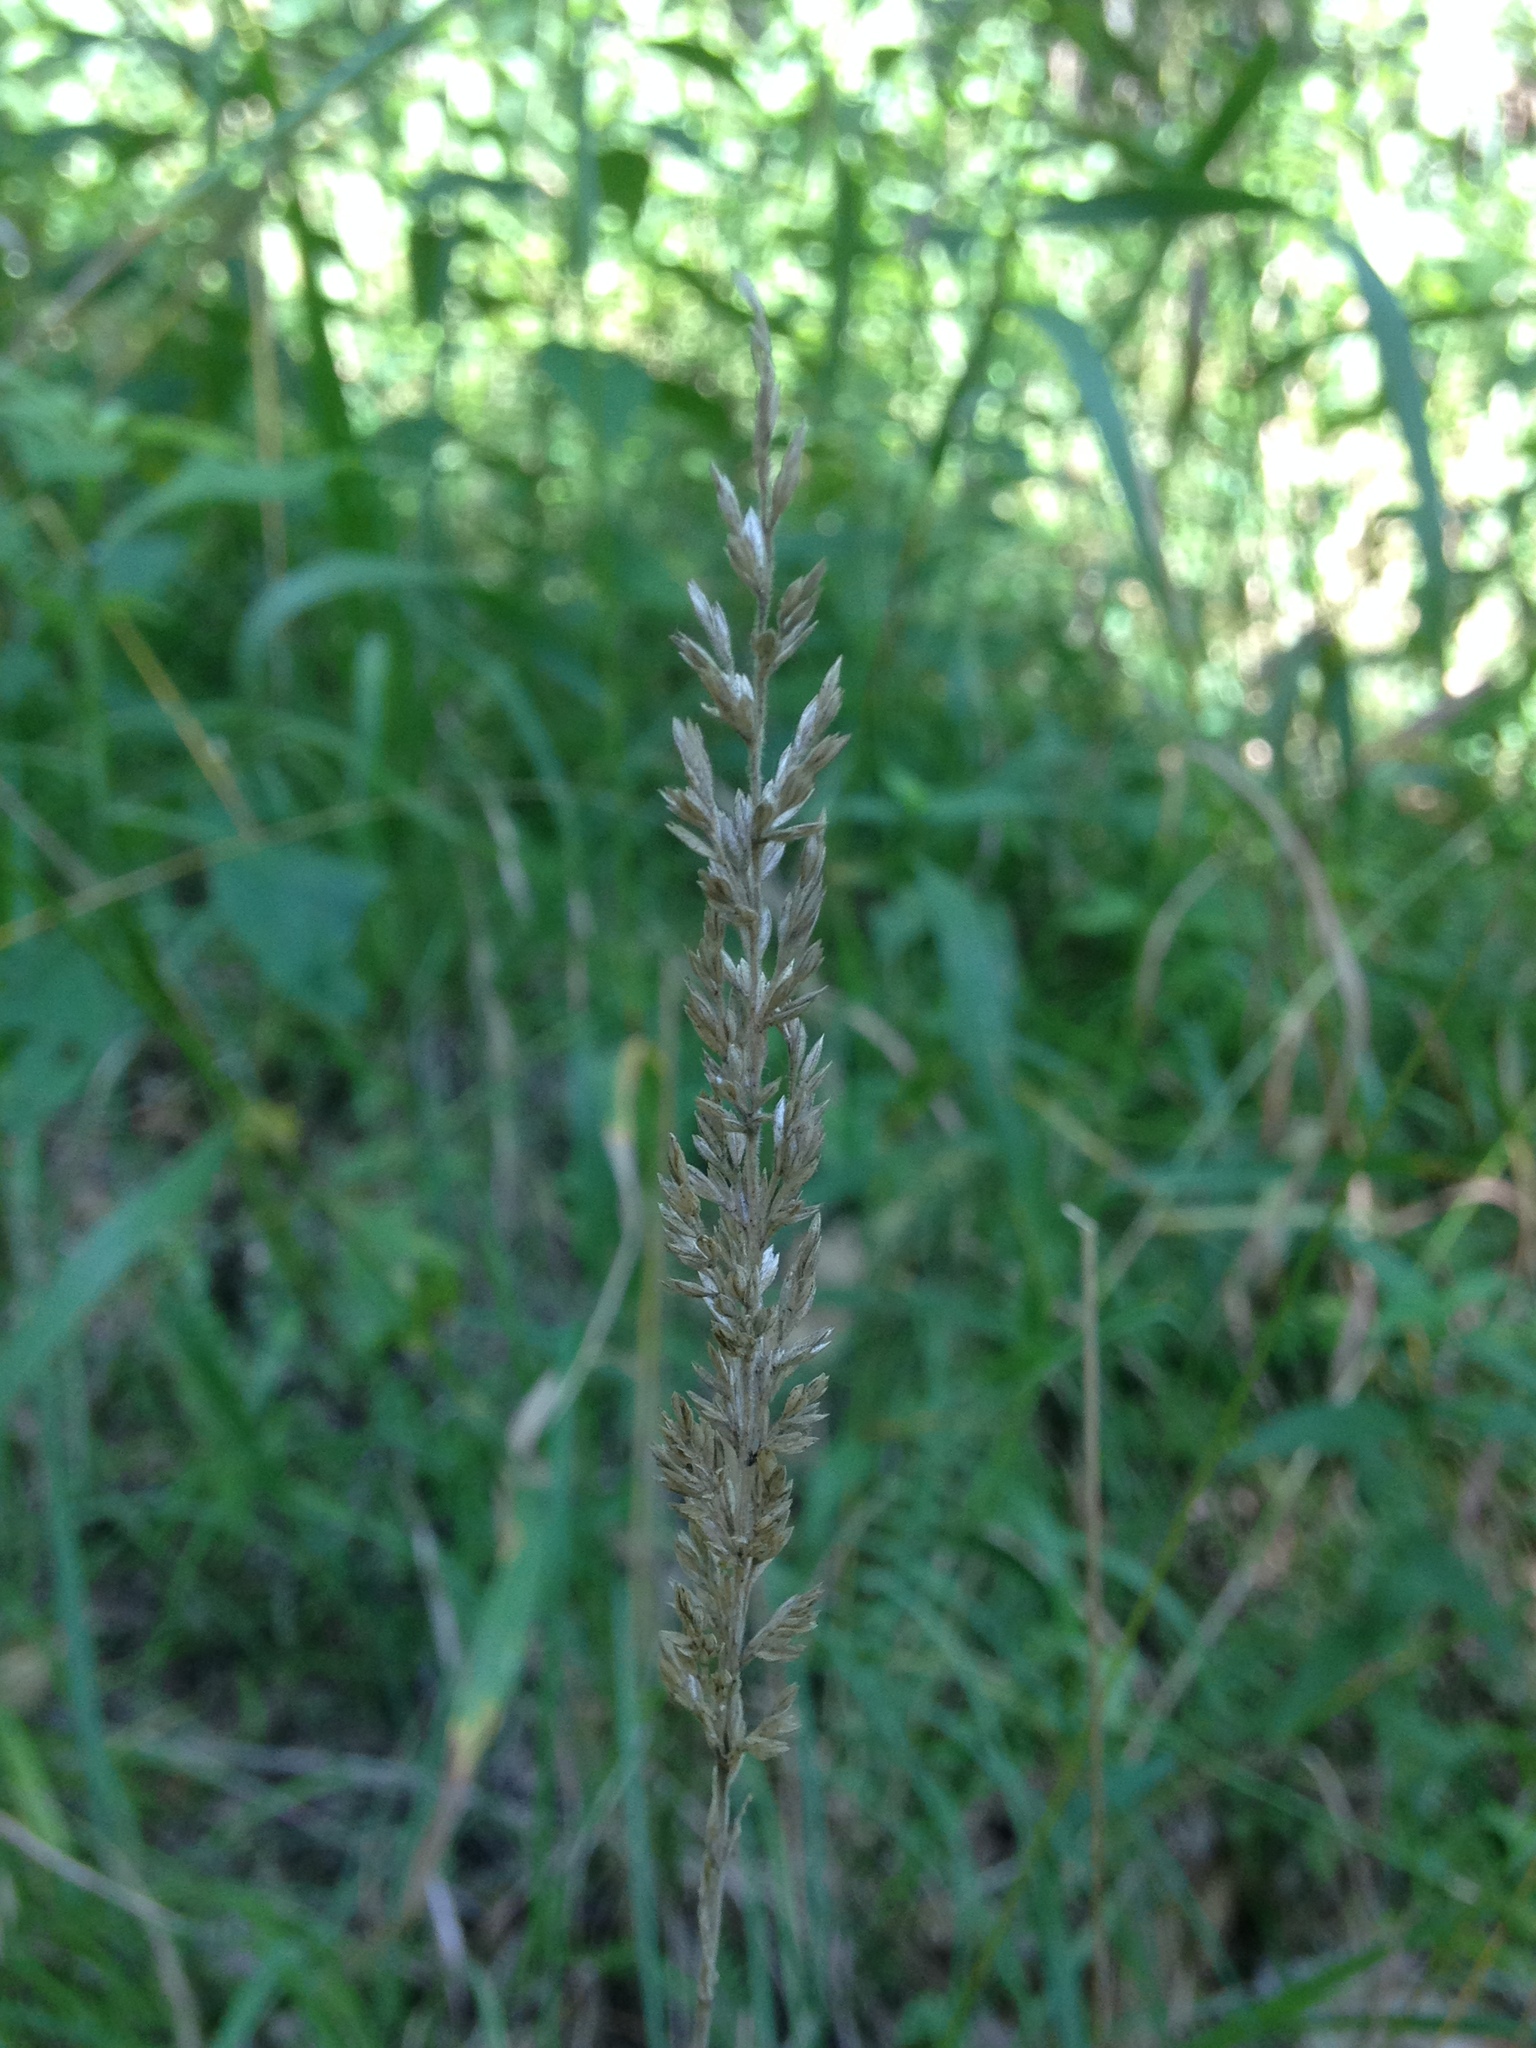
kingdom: Plantae
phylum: Tracheophyta
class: Liliopsida
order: Poales
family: Poaceae
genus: Koeleria
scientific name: Koeleria macrantha
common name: Crested hair-grass
